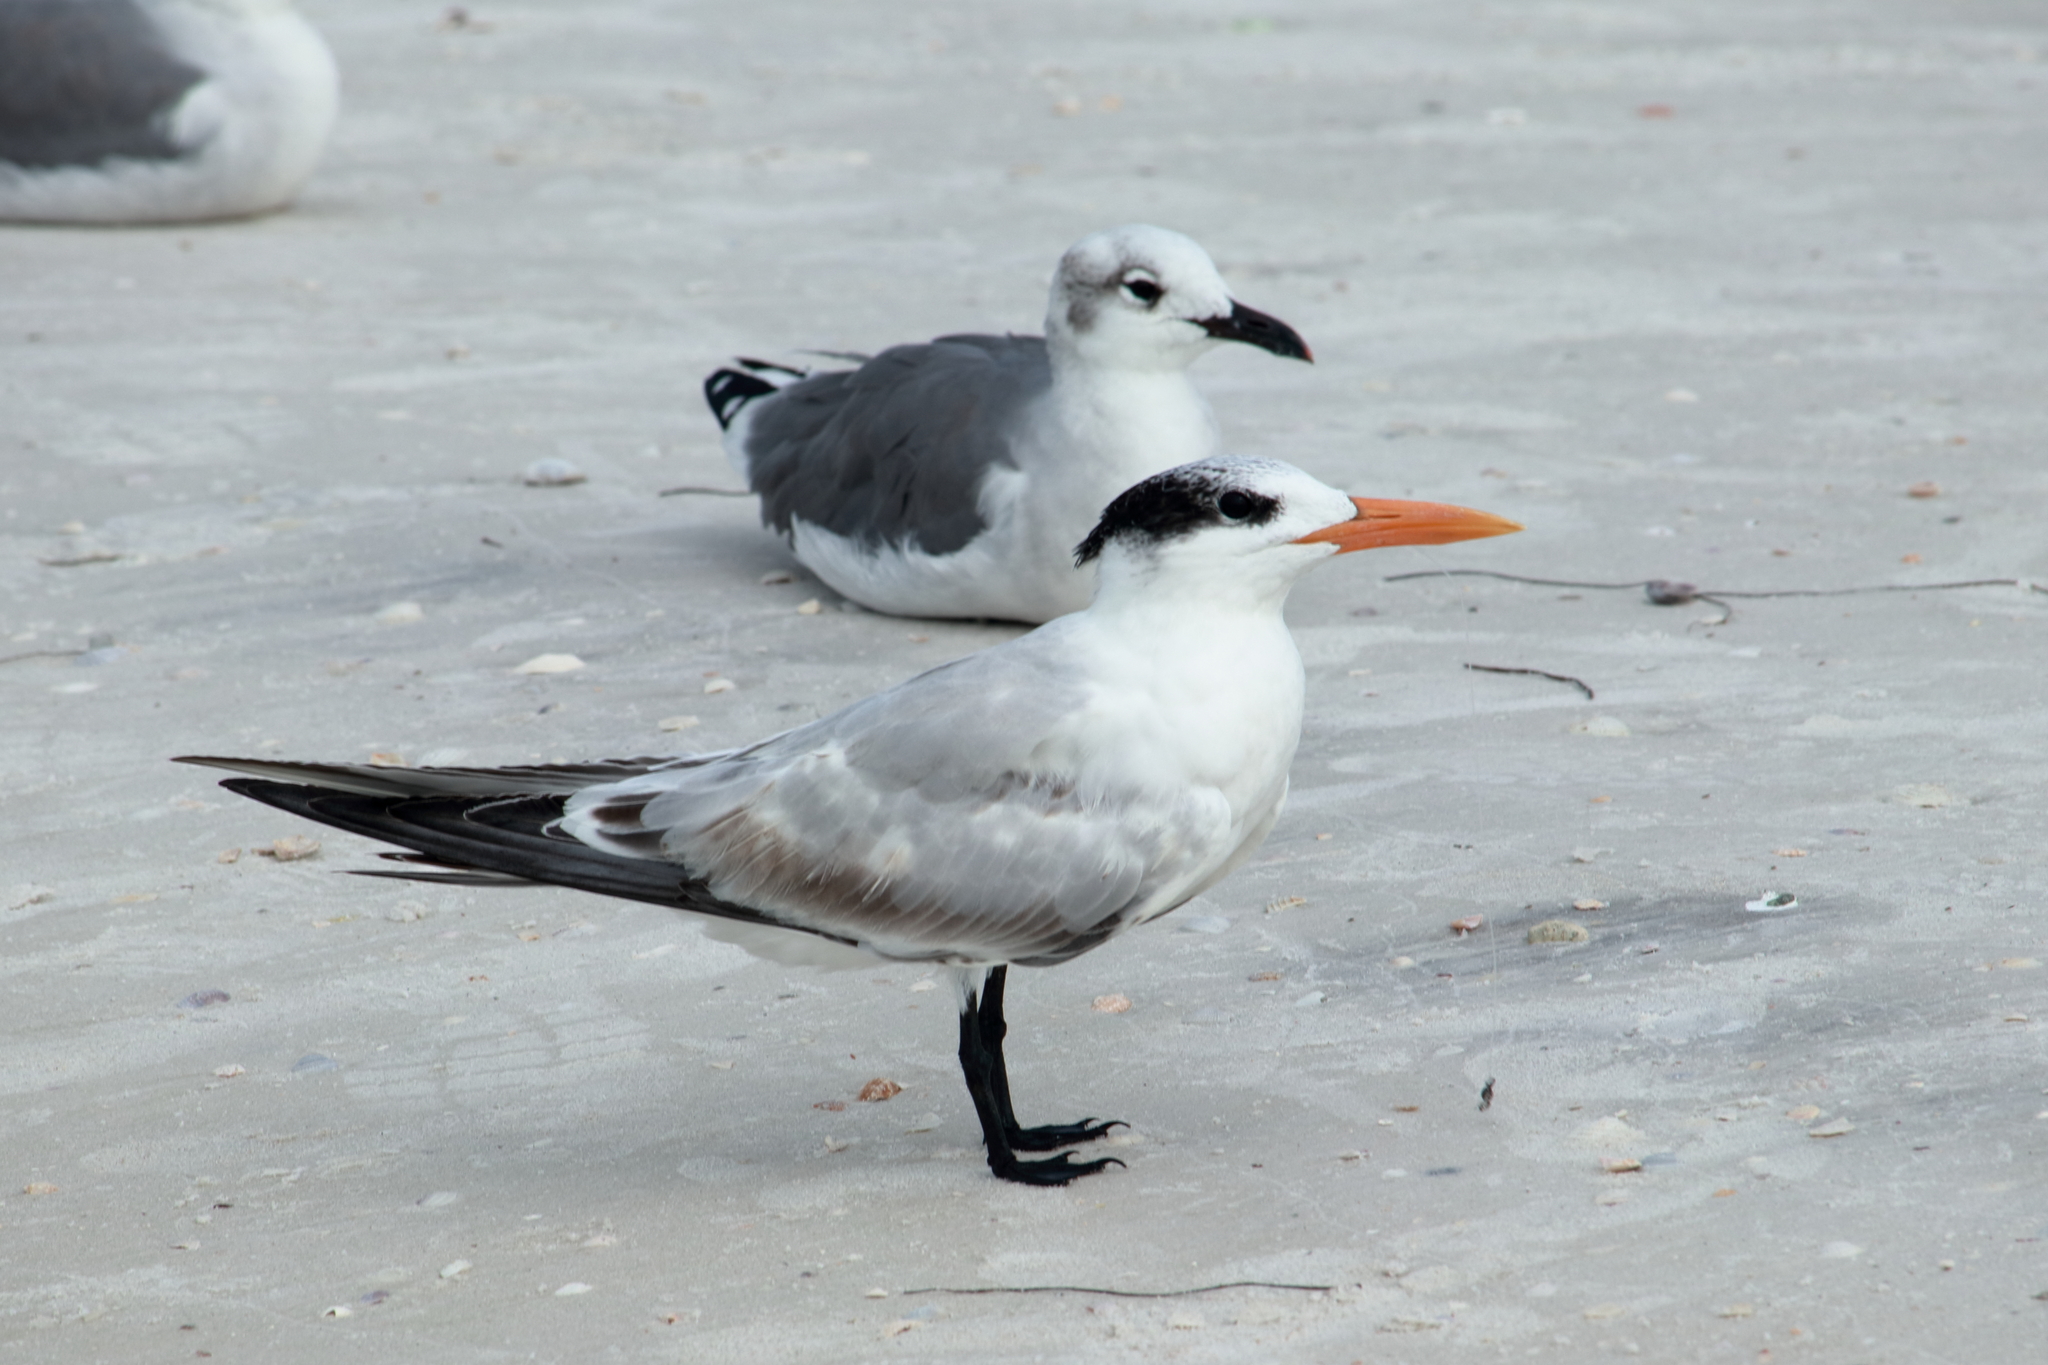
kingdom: Animalia
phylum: Chordata
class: Aves
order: Charadriiformes
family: Laridae
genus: Thalasseus
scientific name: Thalasseus maximus
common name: Royal tern
